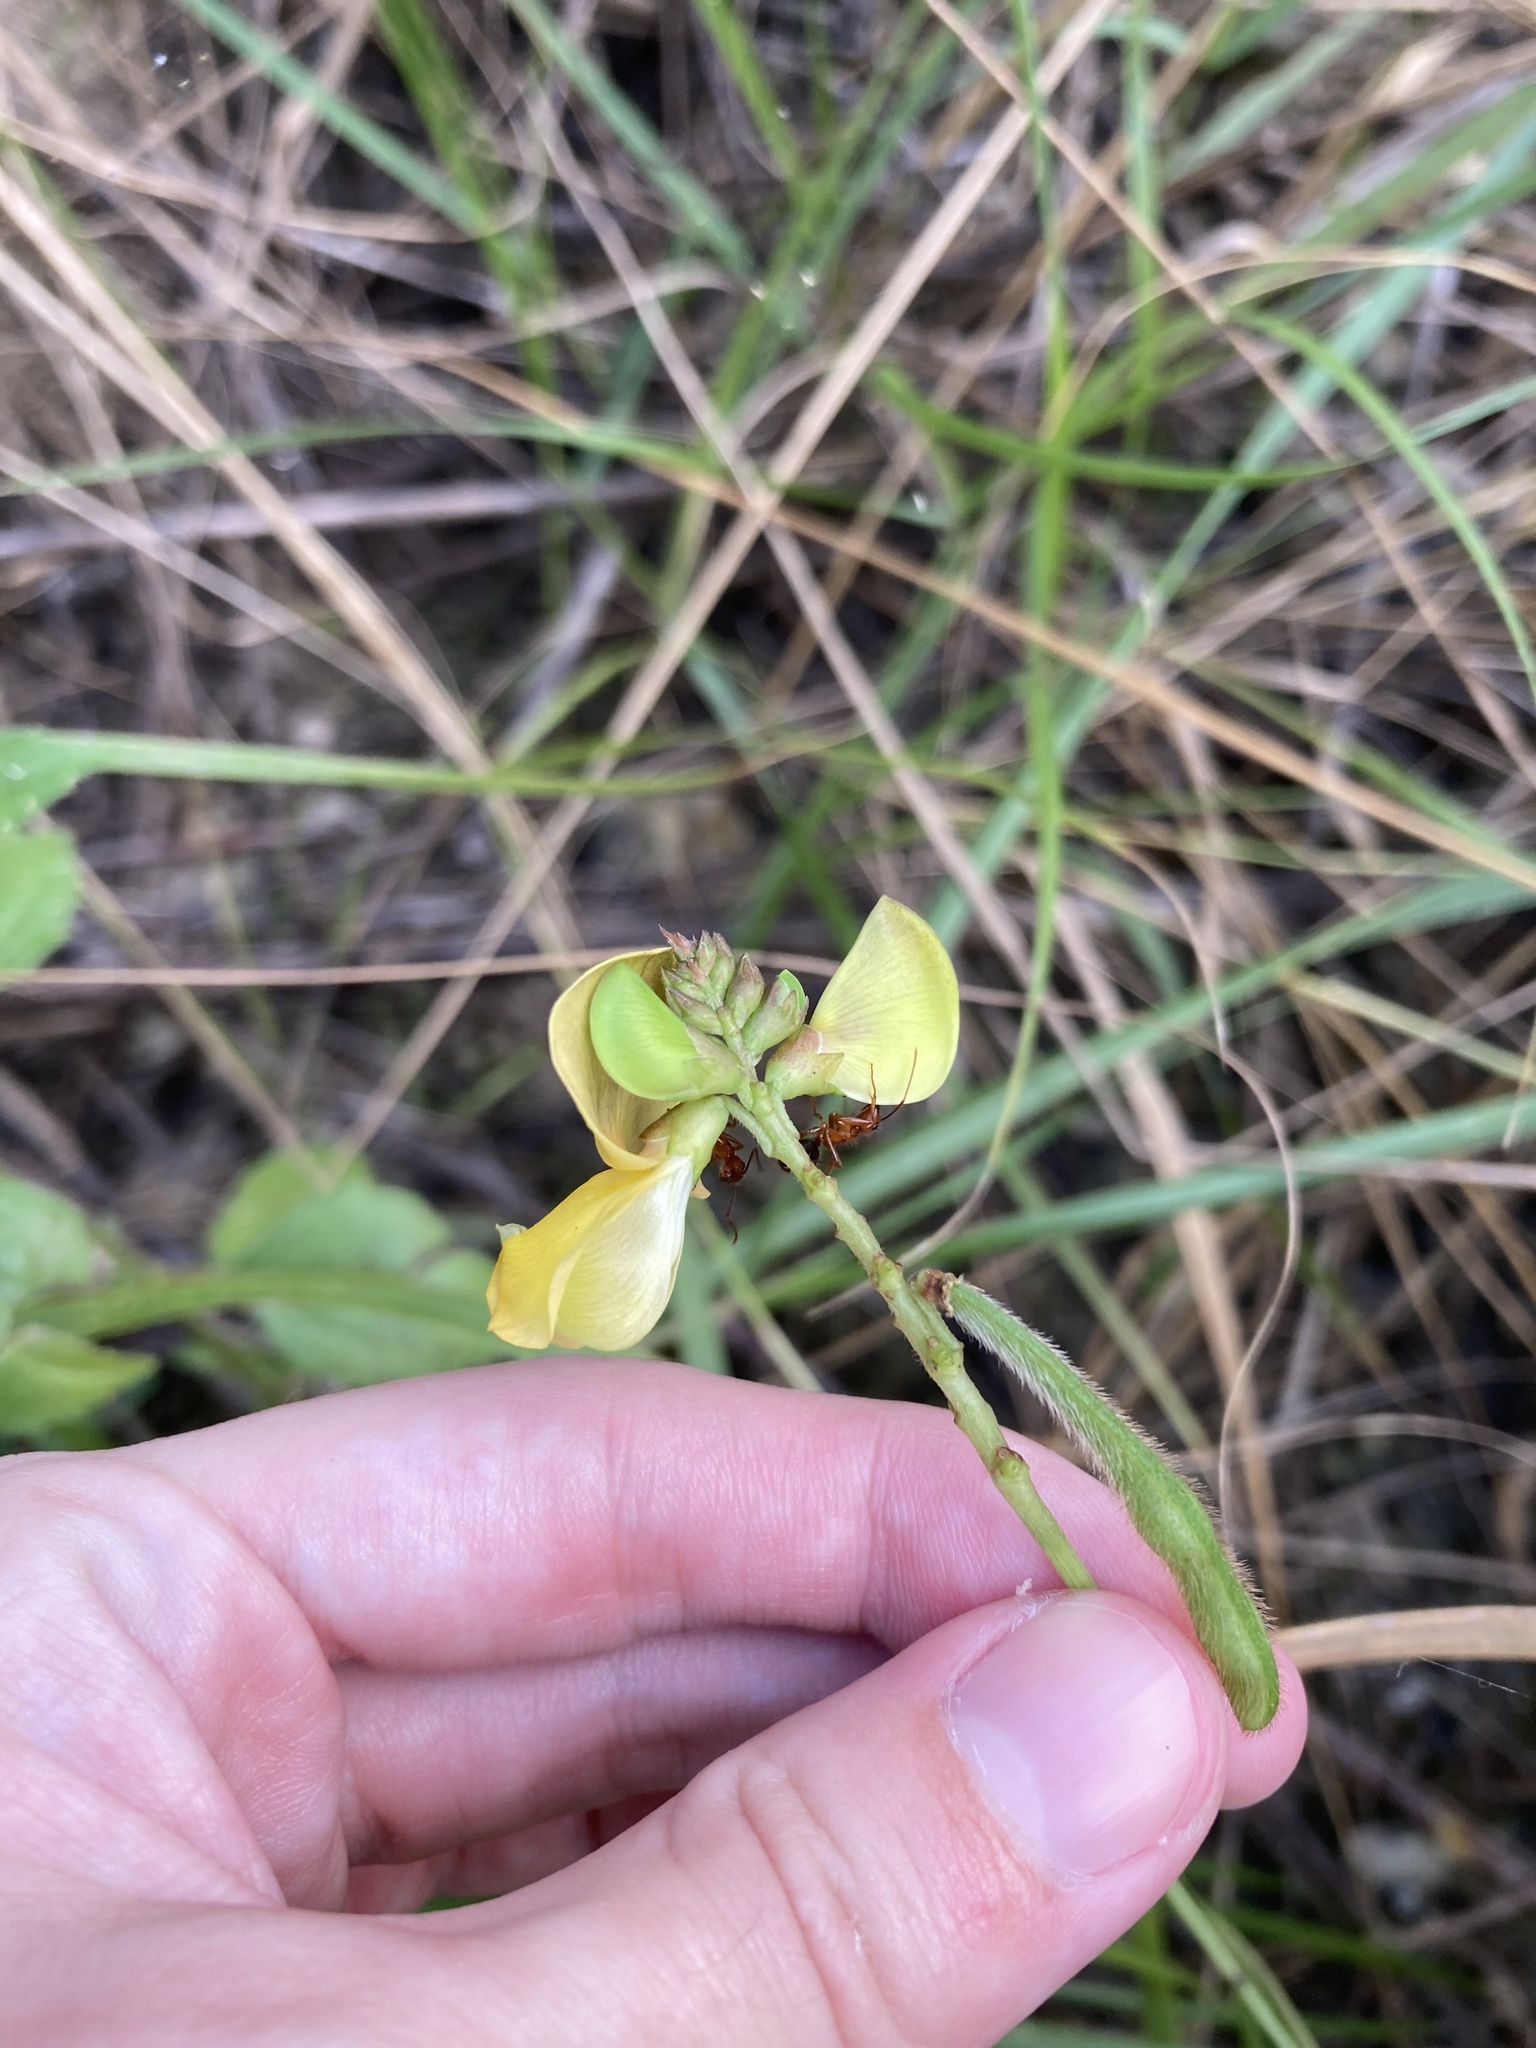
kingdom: Plantae
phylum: Tracheophyta
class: Magnoliopsida
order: Fabales
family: Fabaceae
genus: Vigna
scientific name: Vigna luteola
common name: Hairypod cowpea
